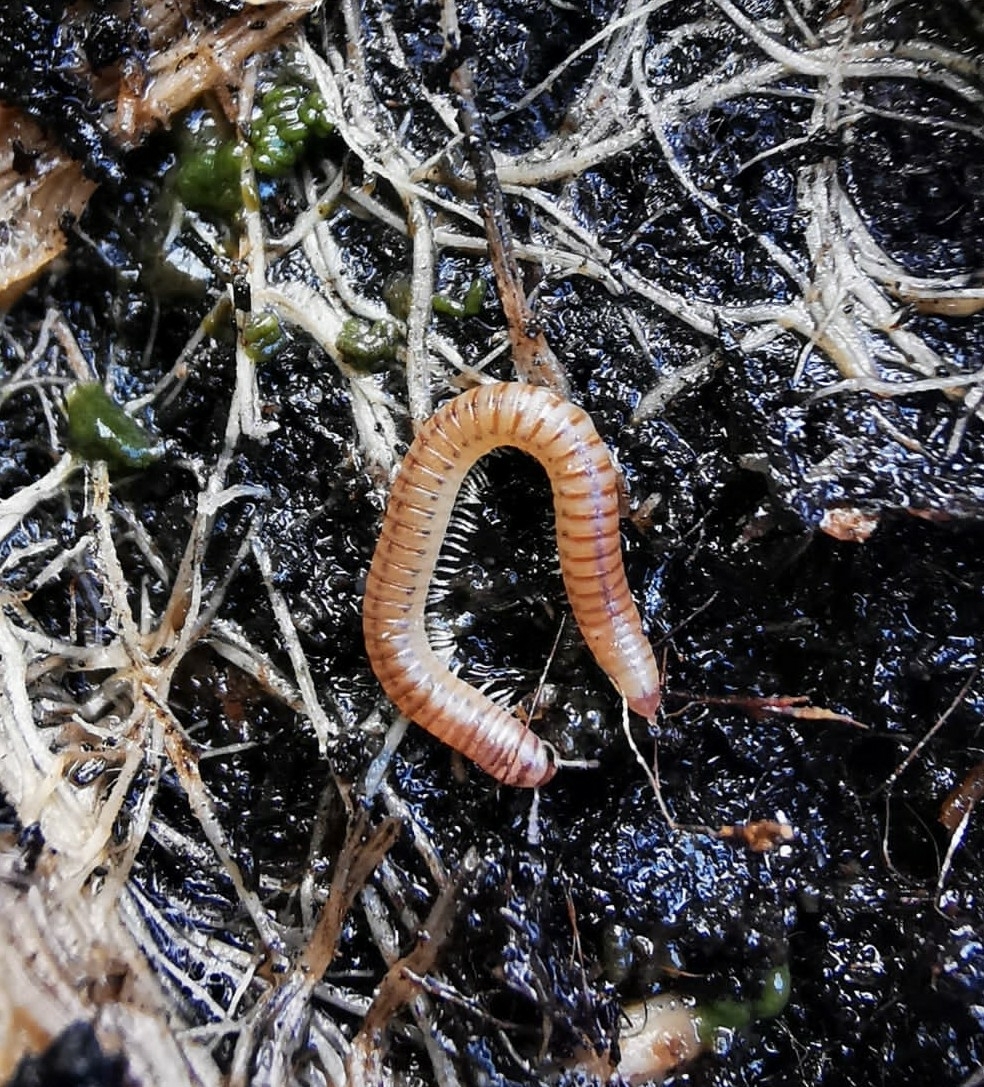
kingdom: Animalia
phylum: Arthropoda
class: Diplopoda
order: Julida
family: Julidae
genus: Cylindroiulus
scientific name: Cylindroiulus punctatus
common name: Blunt-tailed millipede
